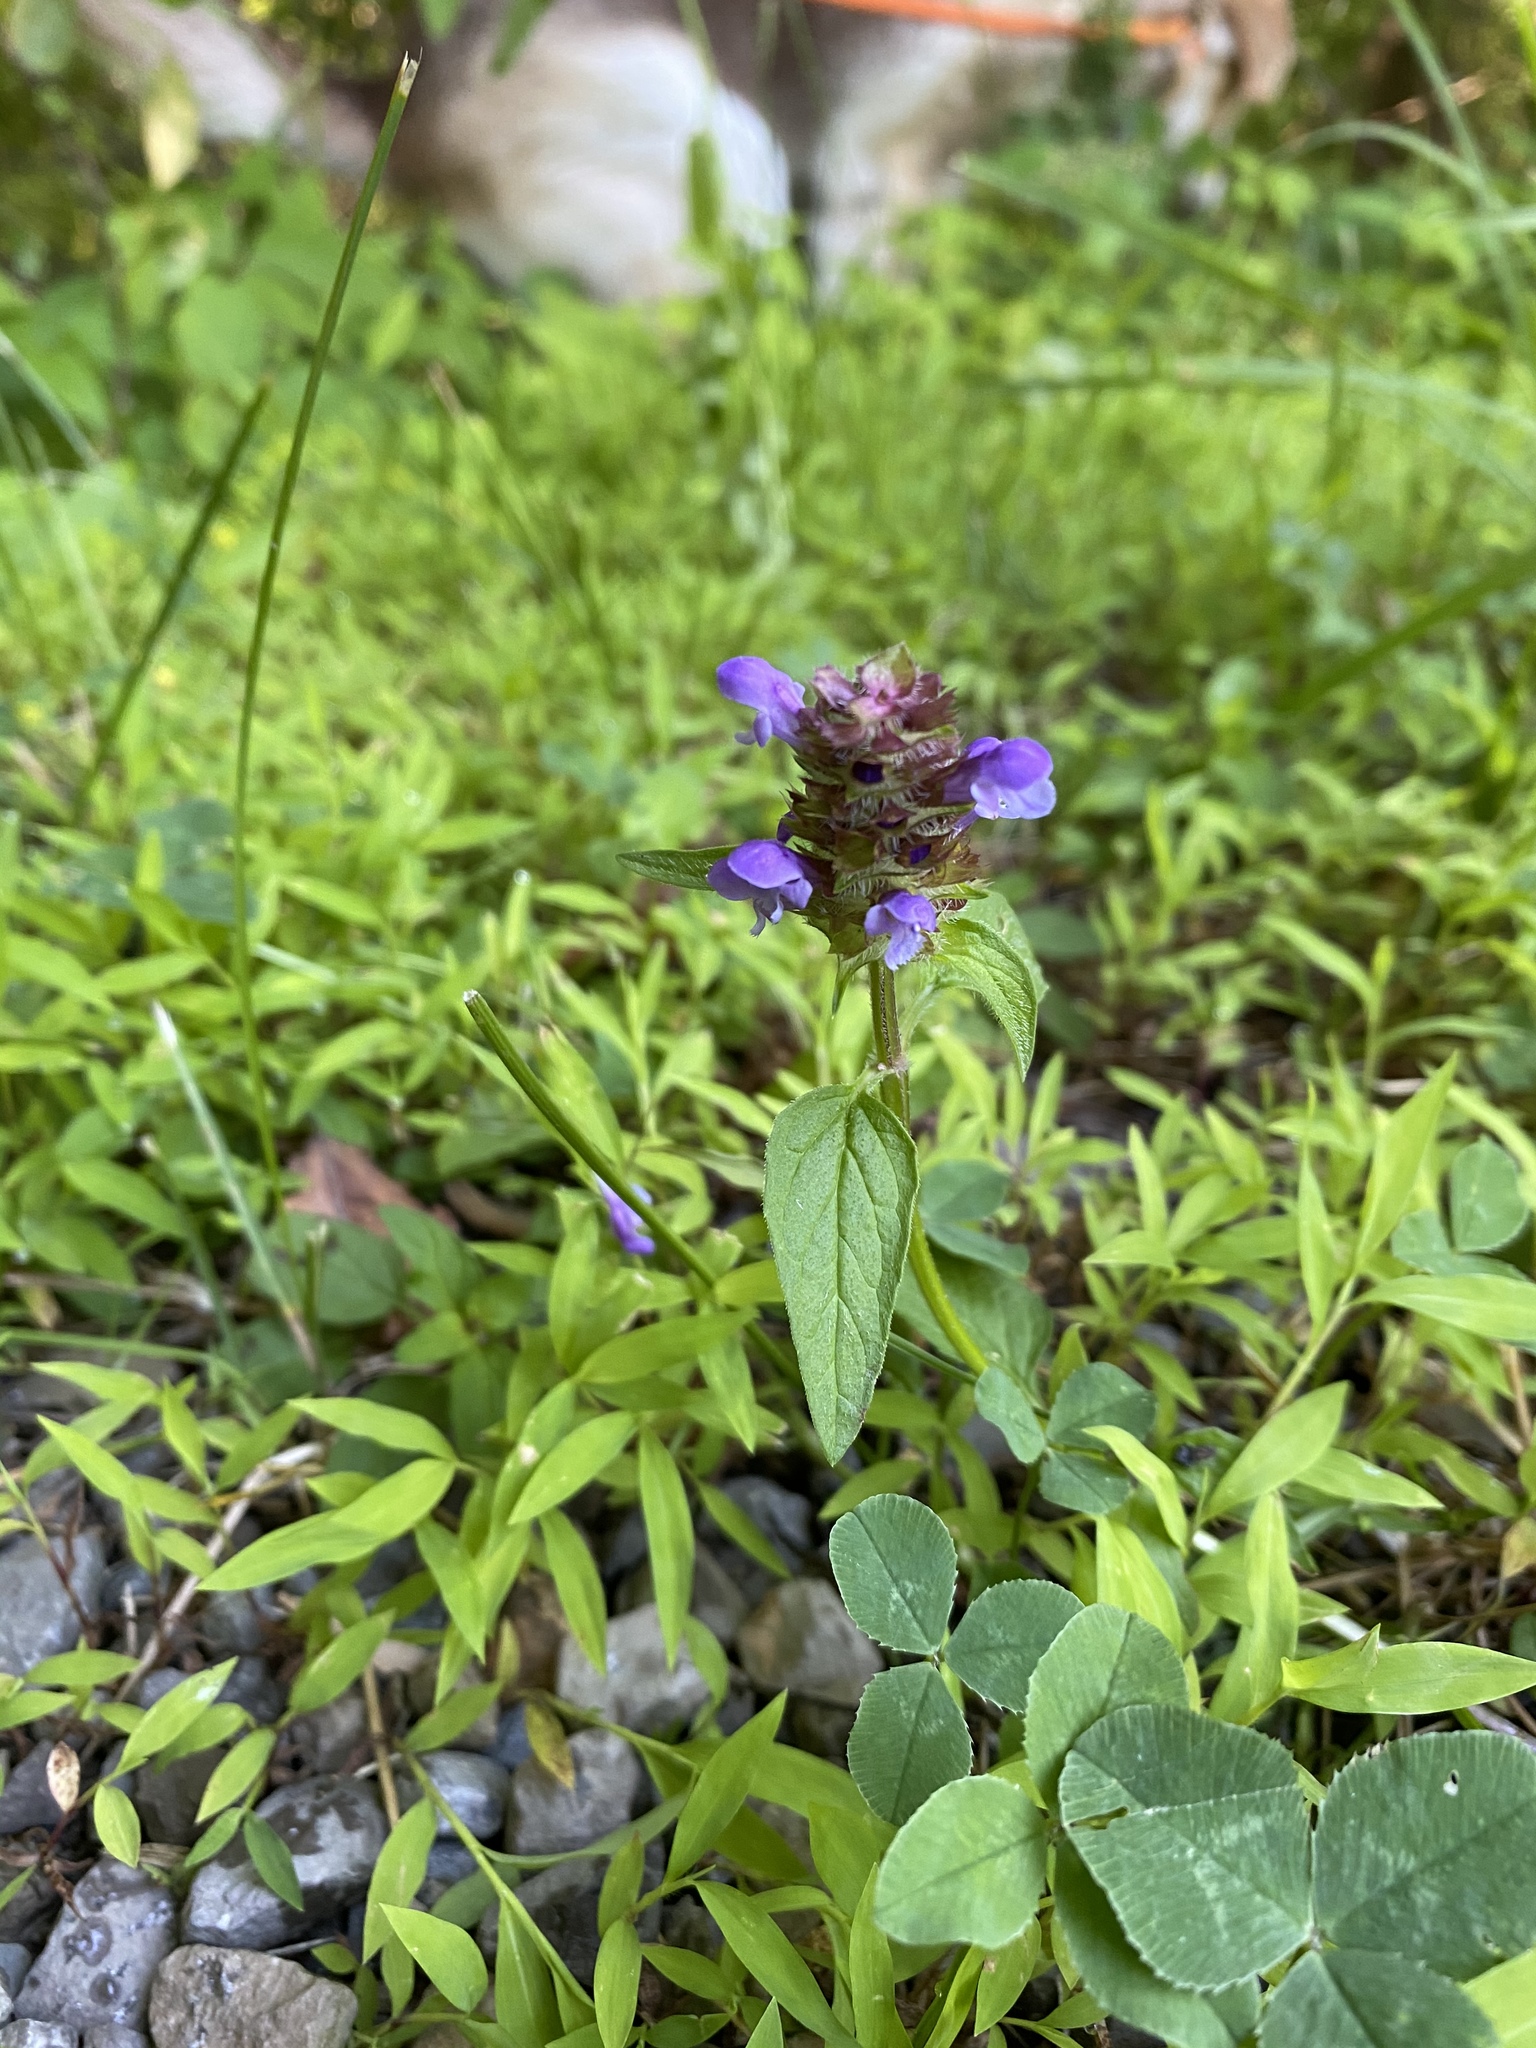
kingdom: Plantae
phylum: Tracheophyta
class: Magnoliopsida
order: Lamiales
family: Lamiaceae
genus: Prunella
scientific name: Prunella vulgaris
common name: Heal-all
